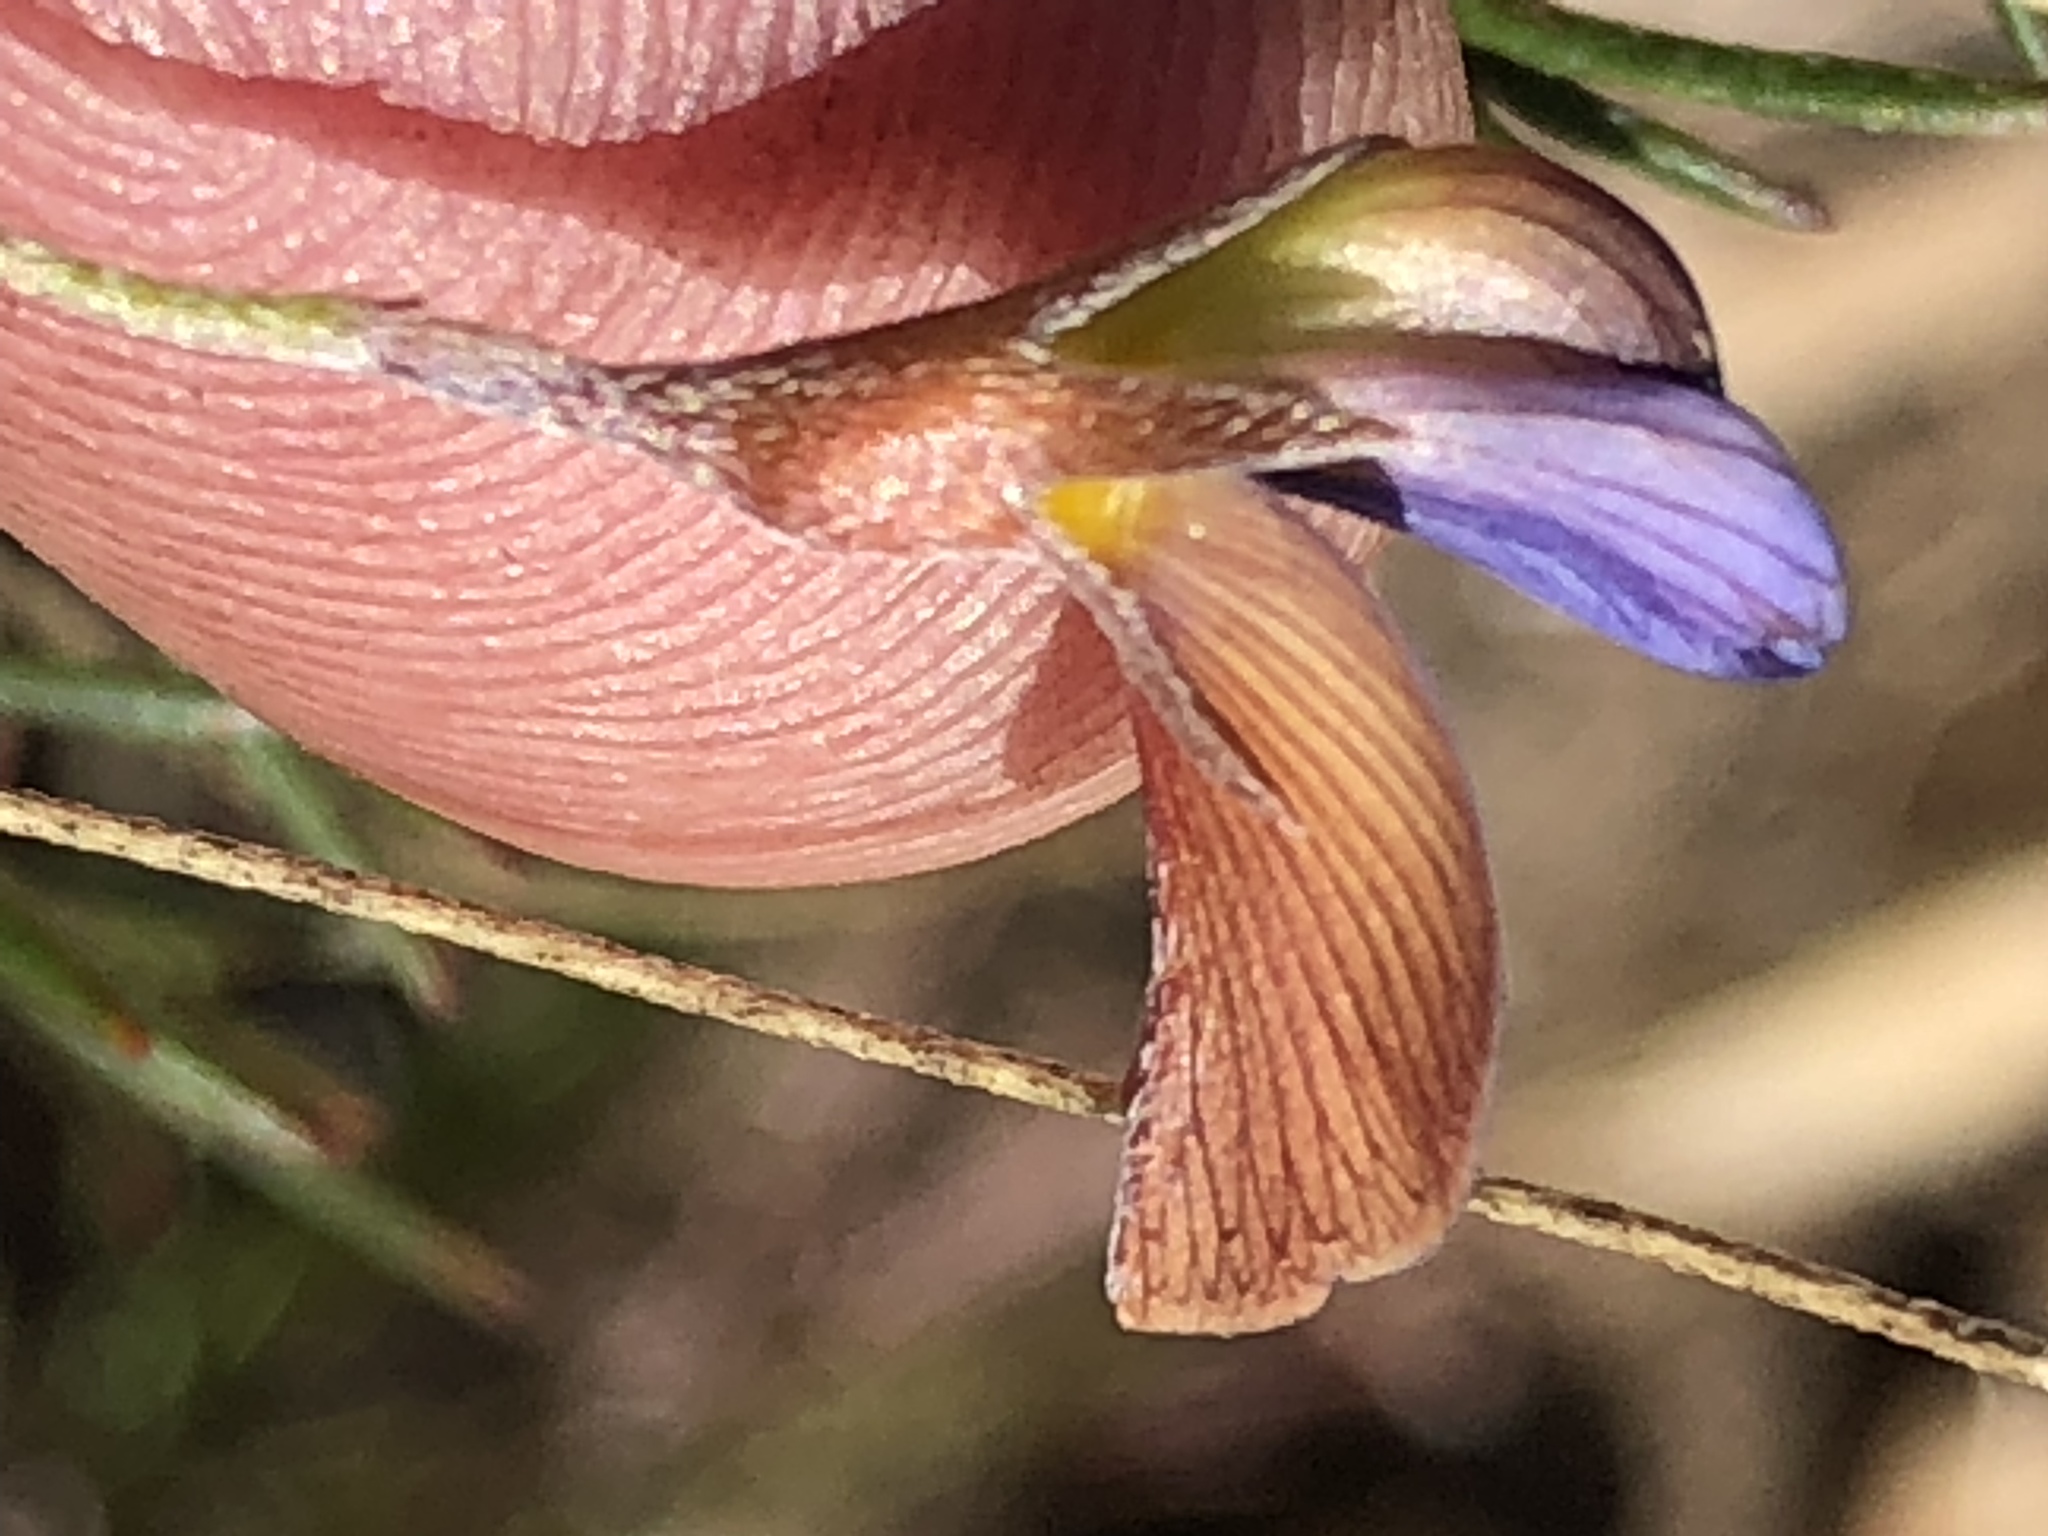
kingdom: Plantae
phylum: Tracheophyta
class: Magnoliopsida
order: Fabales
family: Fabaceae
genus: Lotononis
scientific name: Lotononis filiformis
